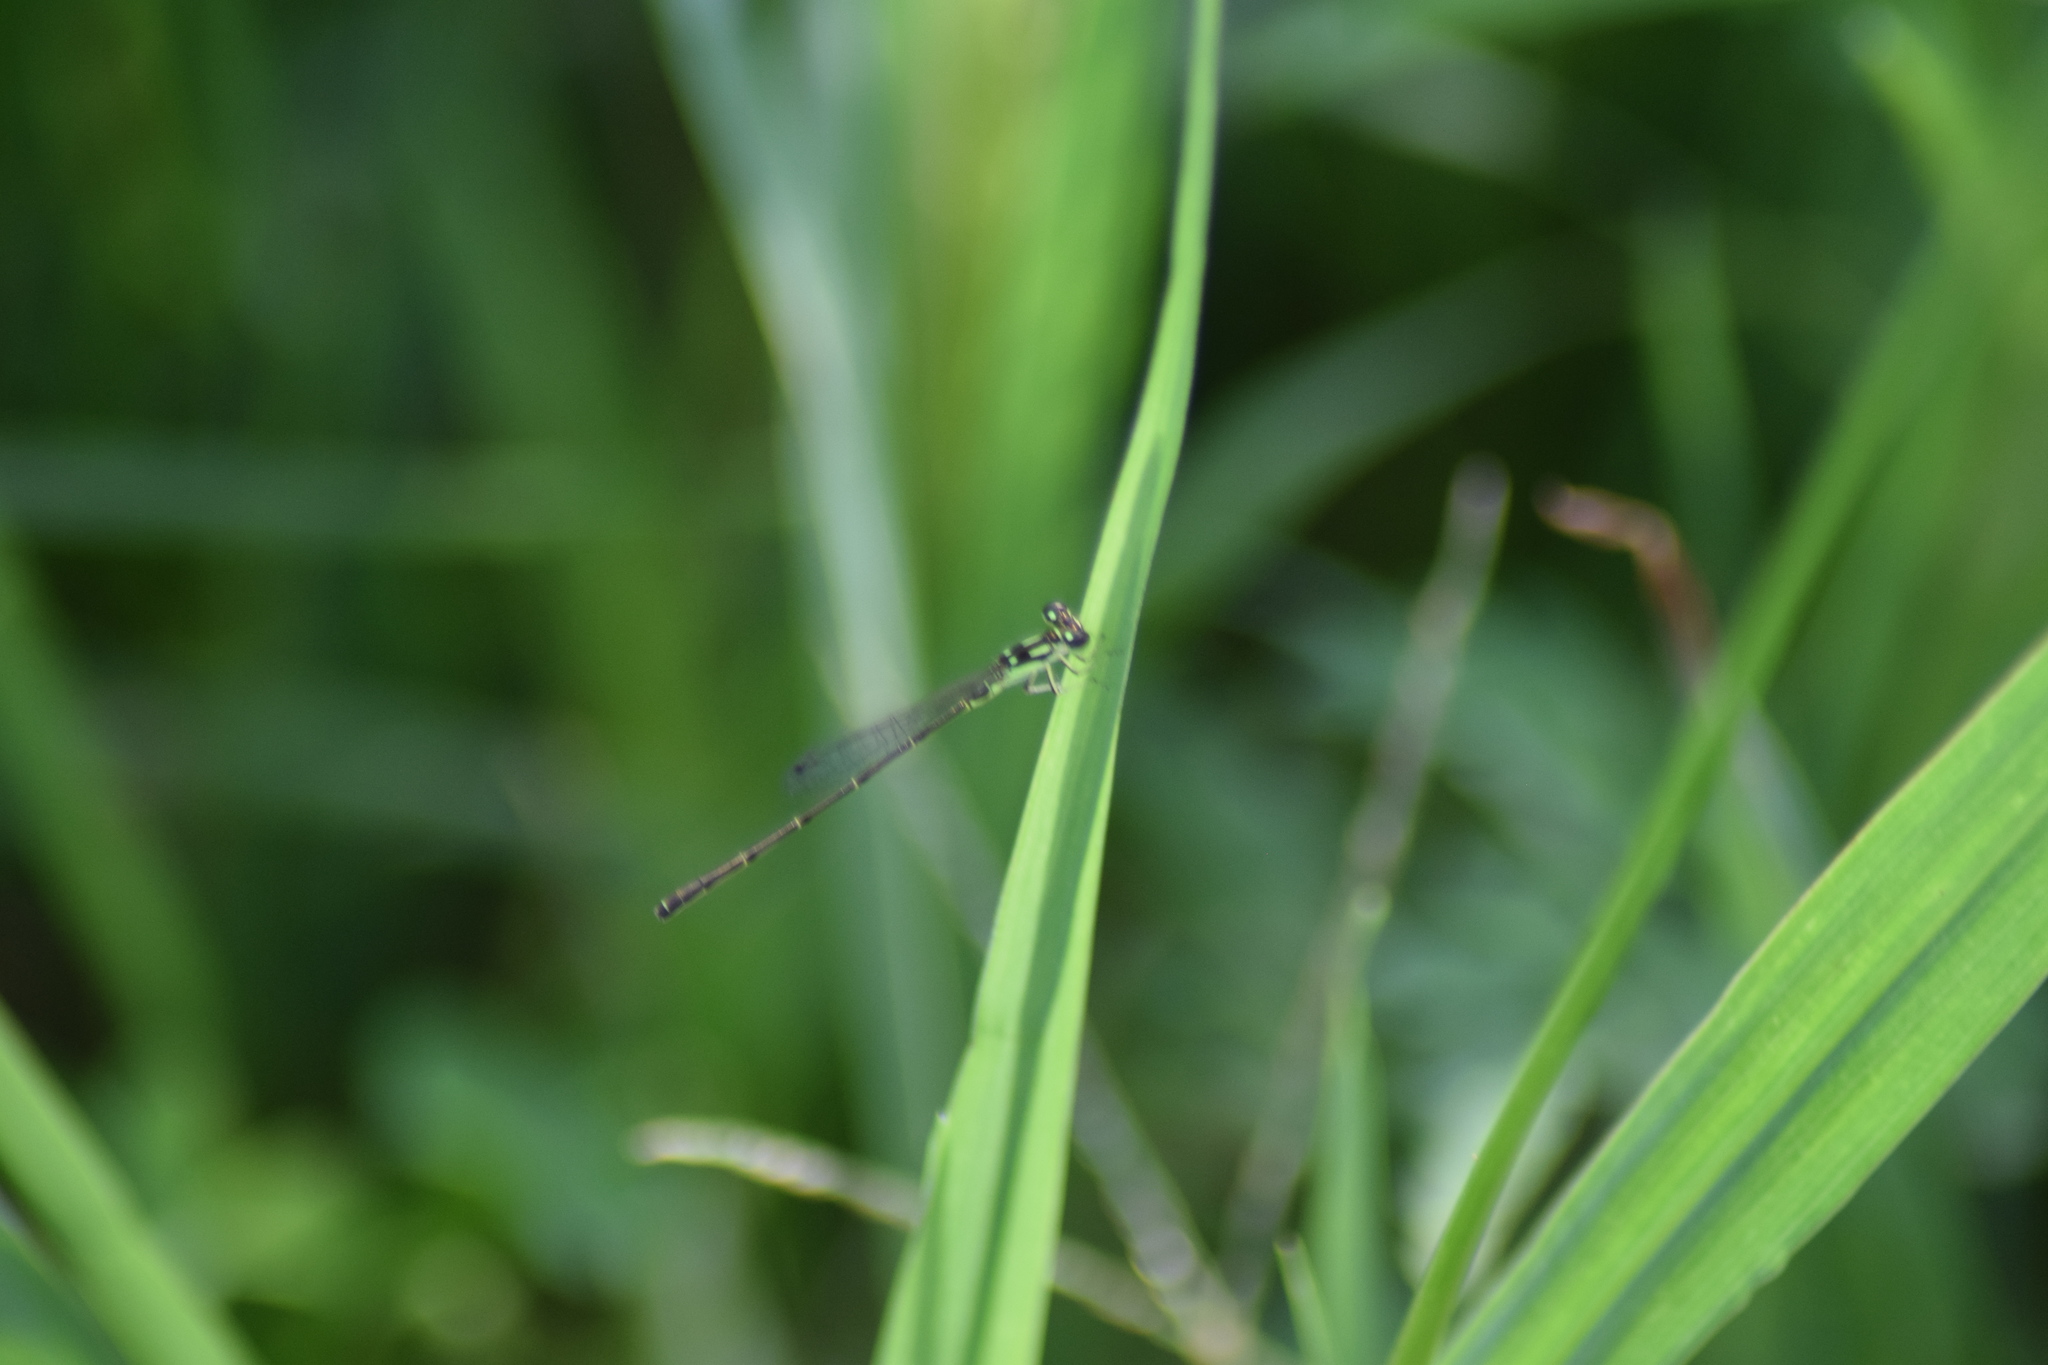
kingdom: Animalia
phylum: Arthropoda
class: Insecta
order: Odonata
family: Coenagrionidae
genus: Ischnura
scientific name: Ischnura posita
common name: Fragile forktail
